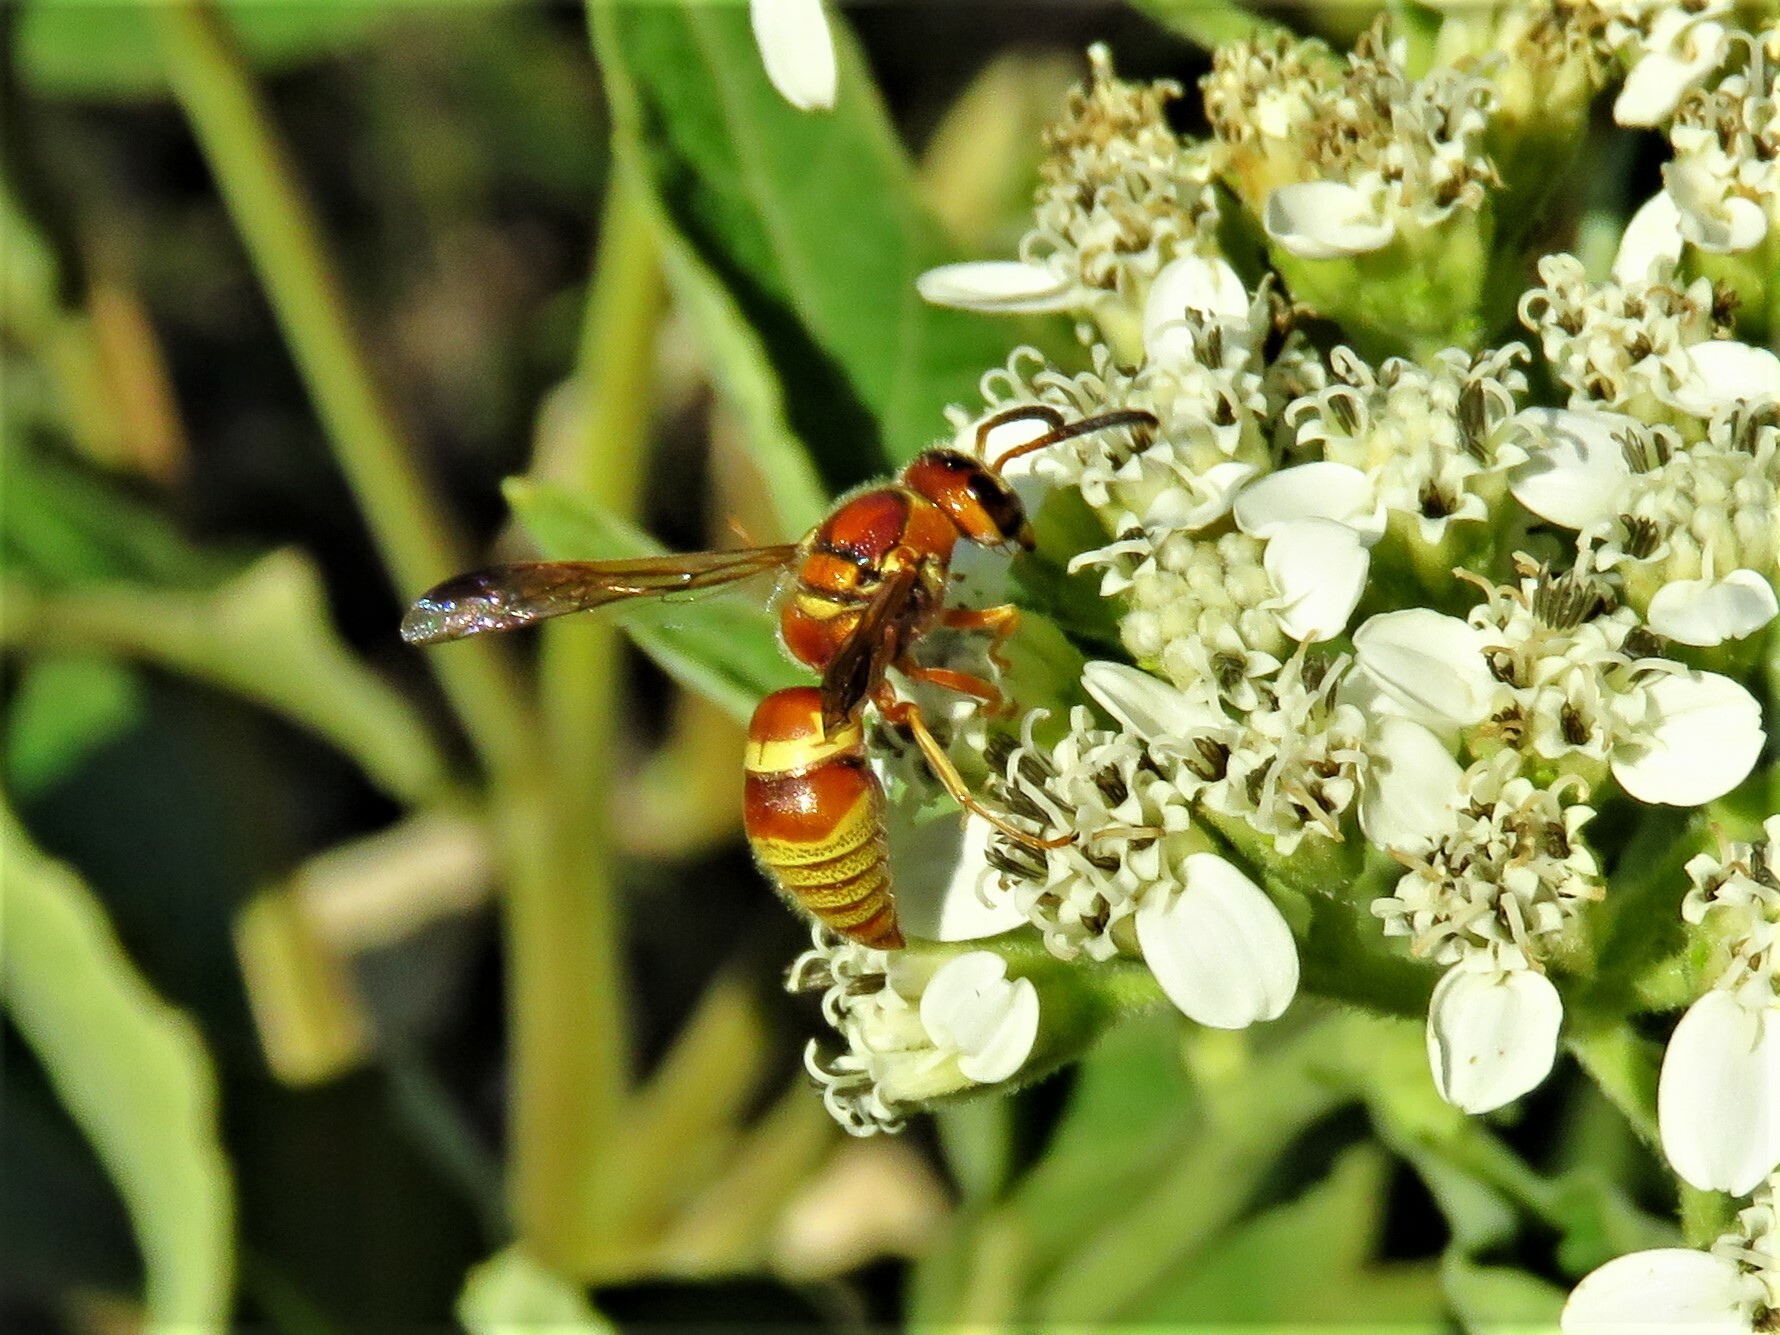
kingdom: Animalia
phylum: Arthropoda
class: Insecta
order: Hymenoptera
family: Eumenidae
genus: Euodynerus
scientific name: Euodynerus pratensis
